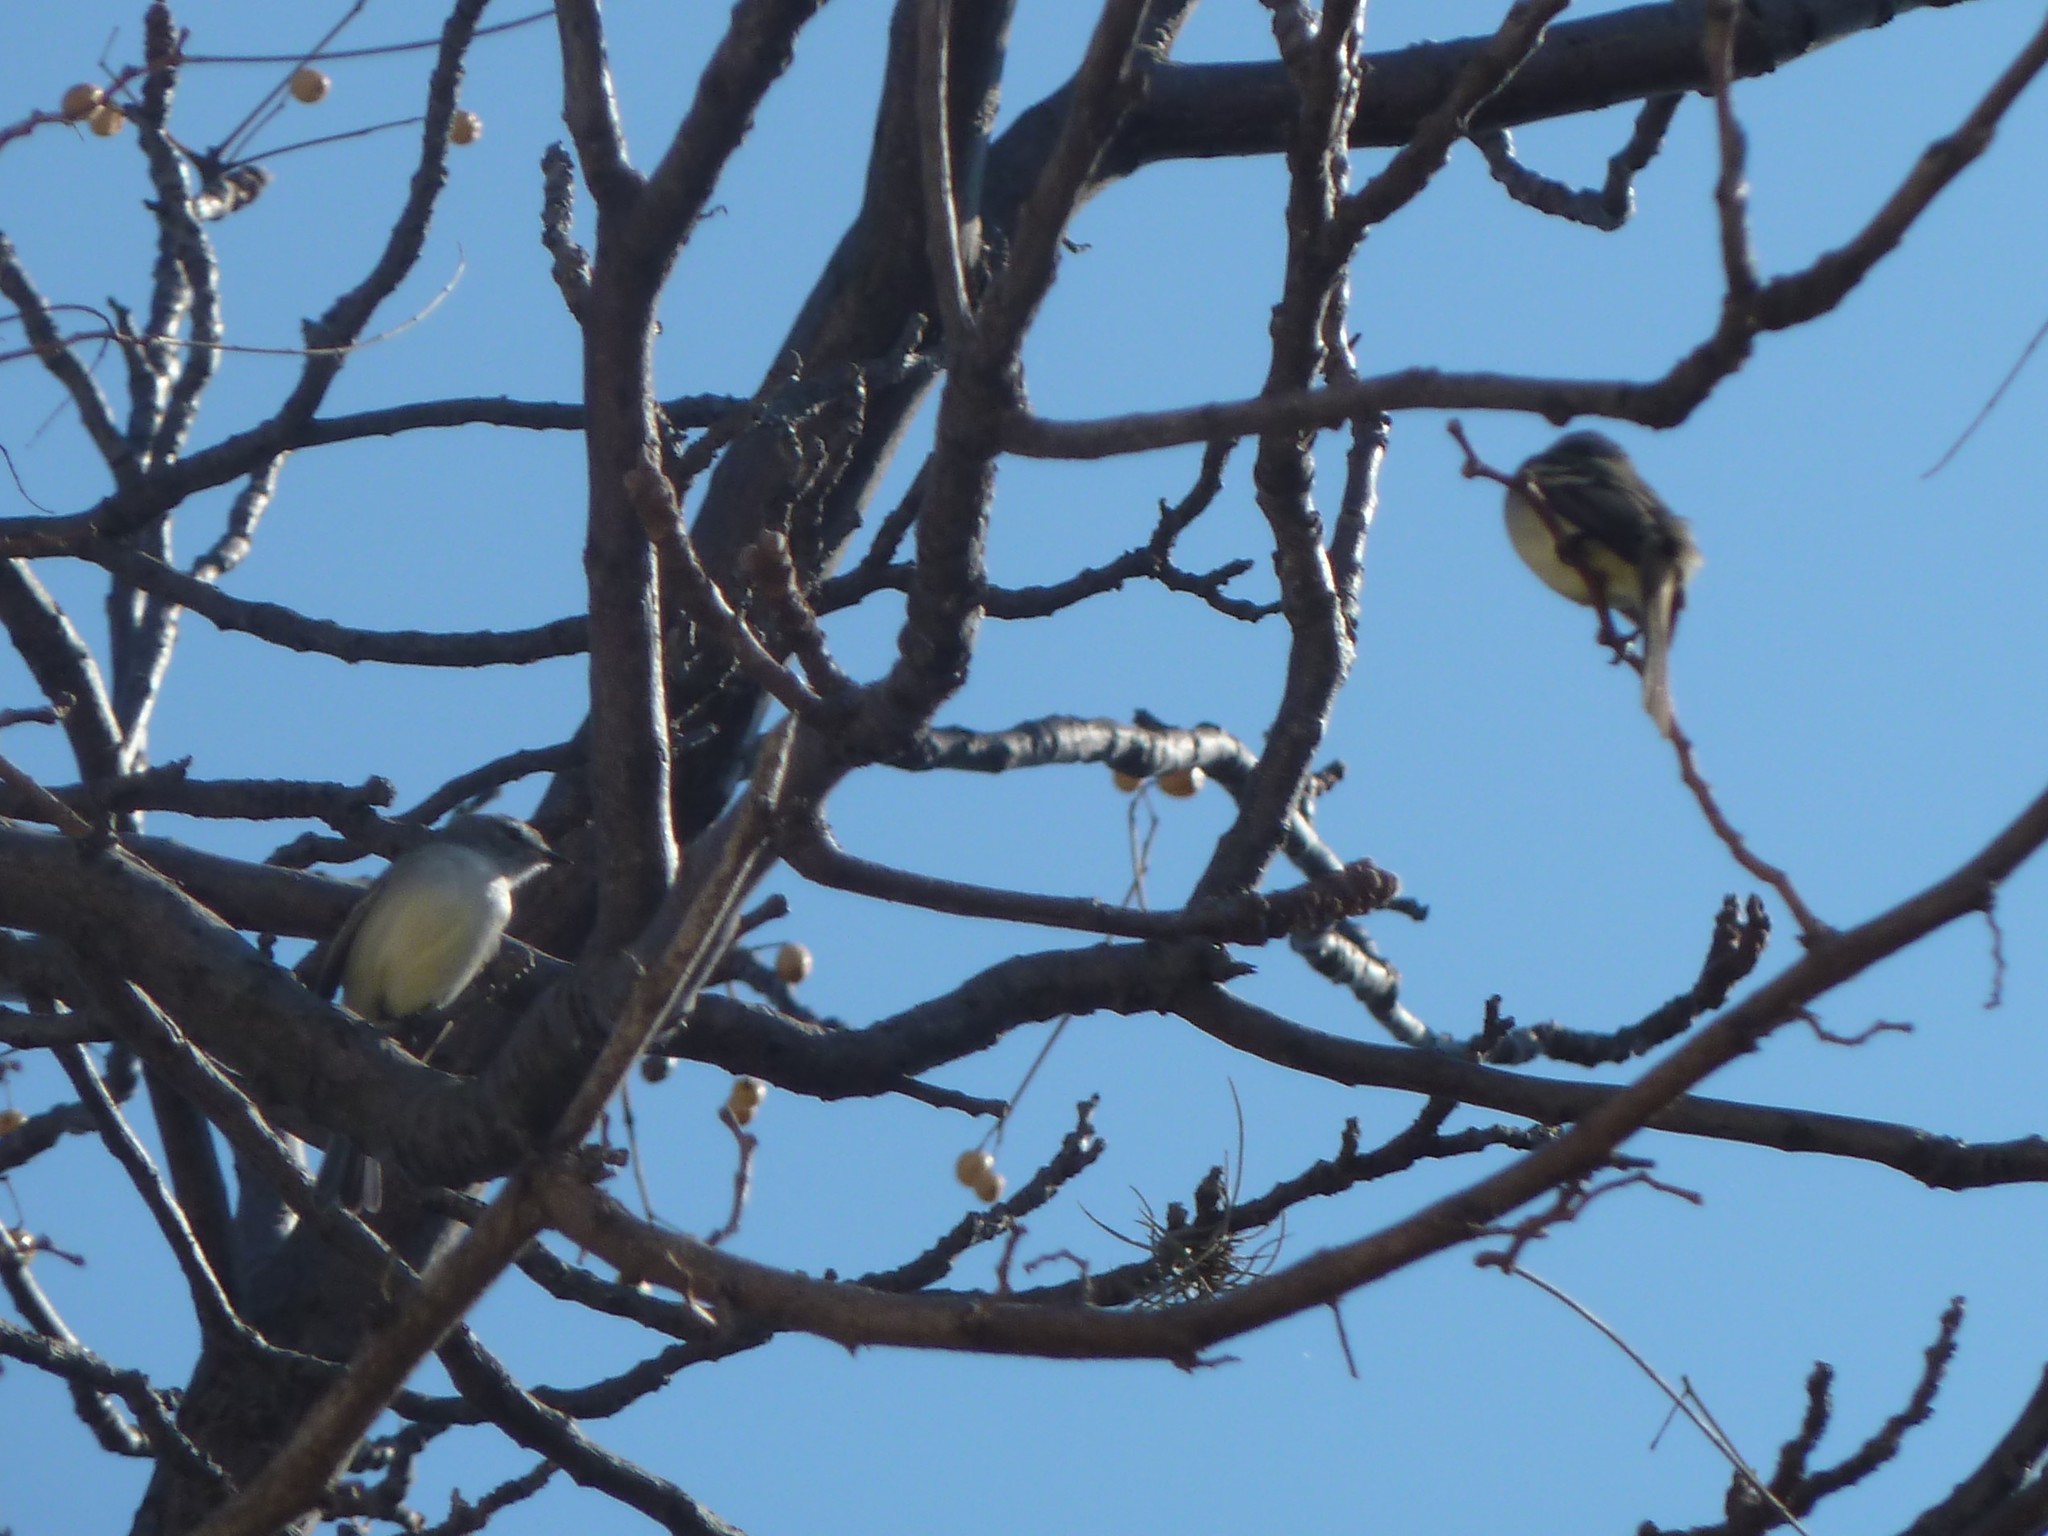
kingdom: Animalia
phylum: Chordata
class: Aves
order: Passeriformes
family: Tyrannidae
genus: Serpophaga
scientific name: Serpophaga subcristata
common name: White-crested tyrannulet
